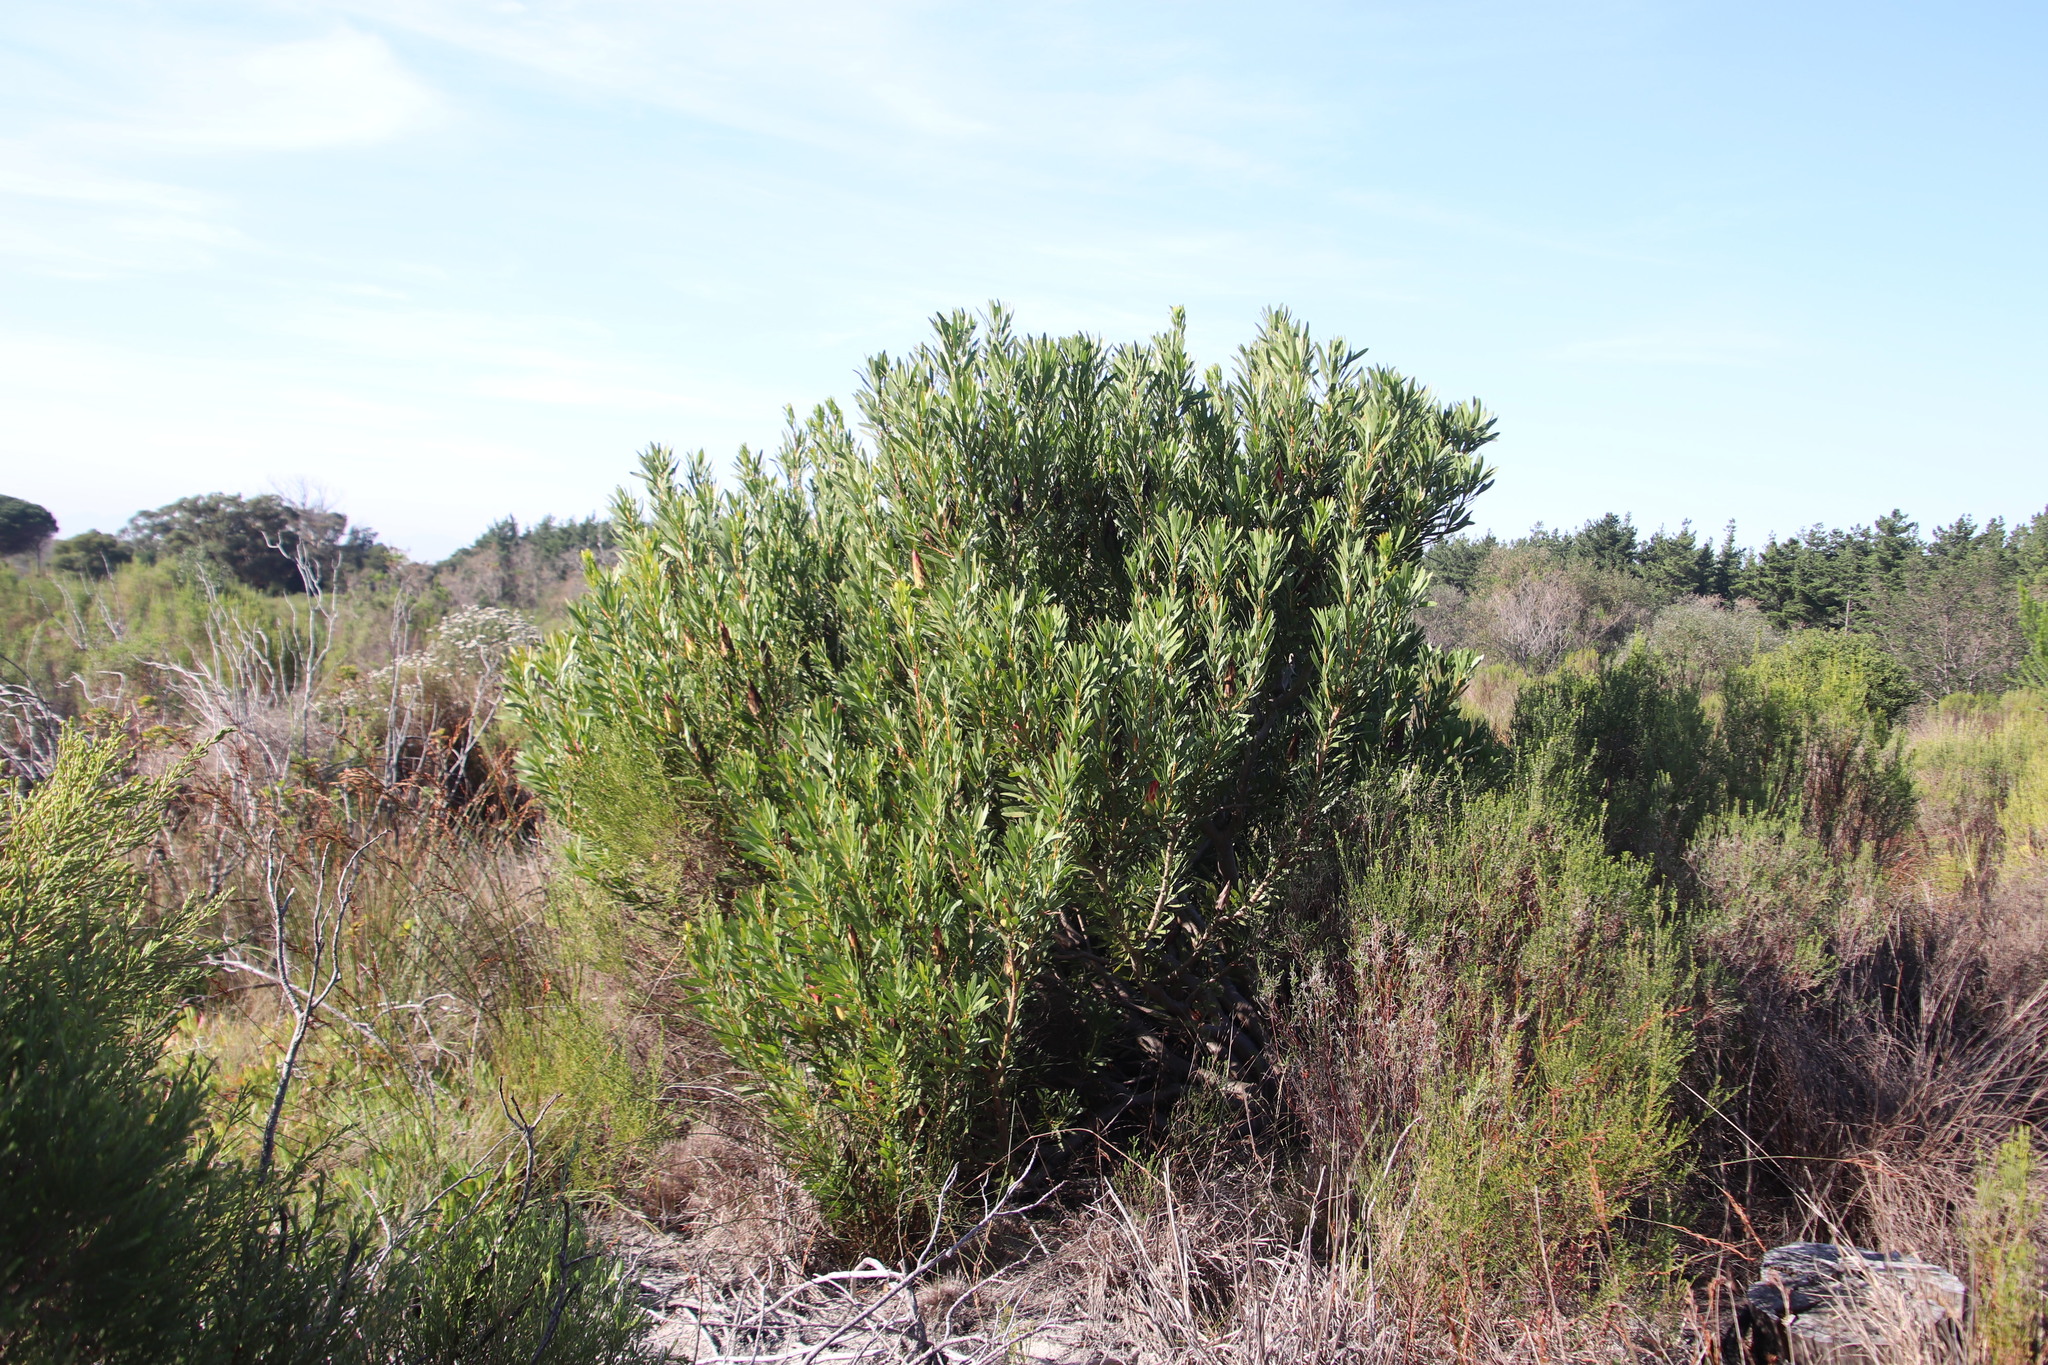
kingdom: Plantae
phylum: Tracheophyta
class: Magnoliopsida
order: Proteales
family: Proteaceae
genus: Protea
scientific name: Protea repens
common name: Sugarbush
